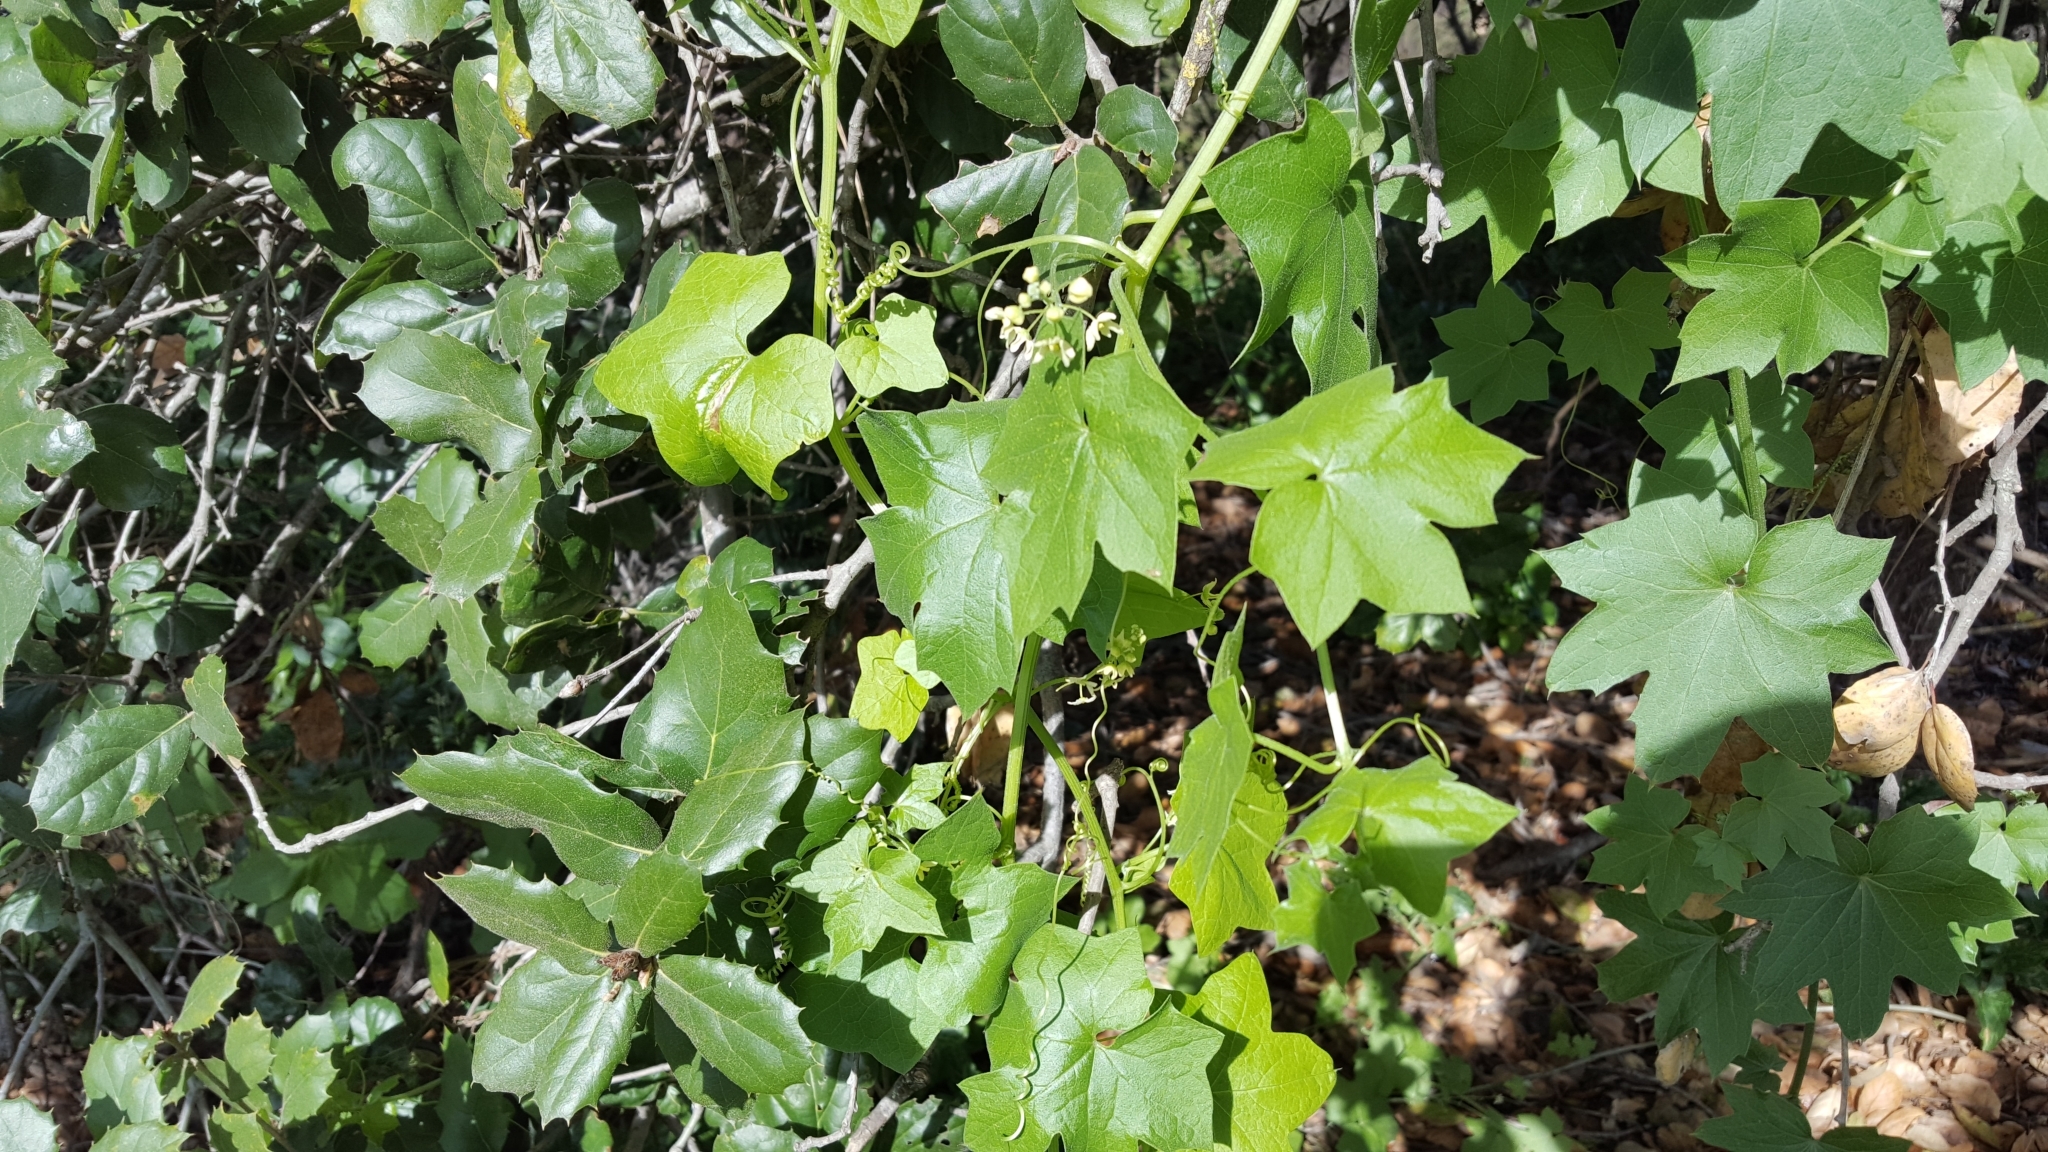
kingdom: Plantae
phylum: Tracheophyta
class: Magnoliopsida
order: Cucurbitales
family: Cucurbitaceae
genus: Marah
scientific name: Marah fabacea
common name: California manroot
